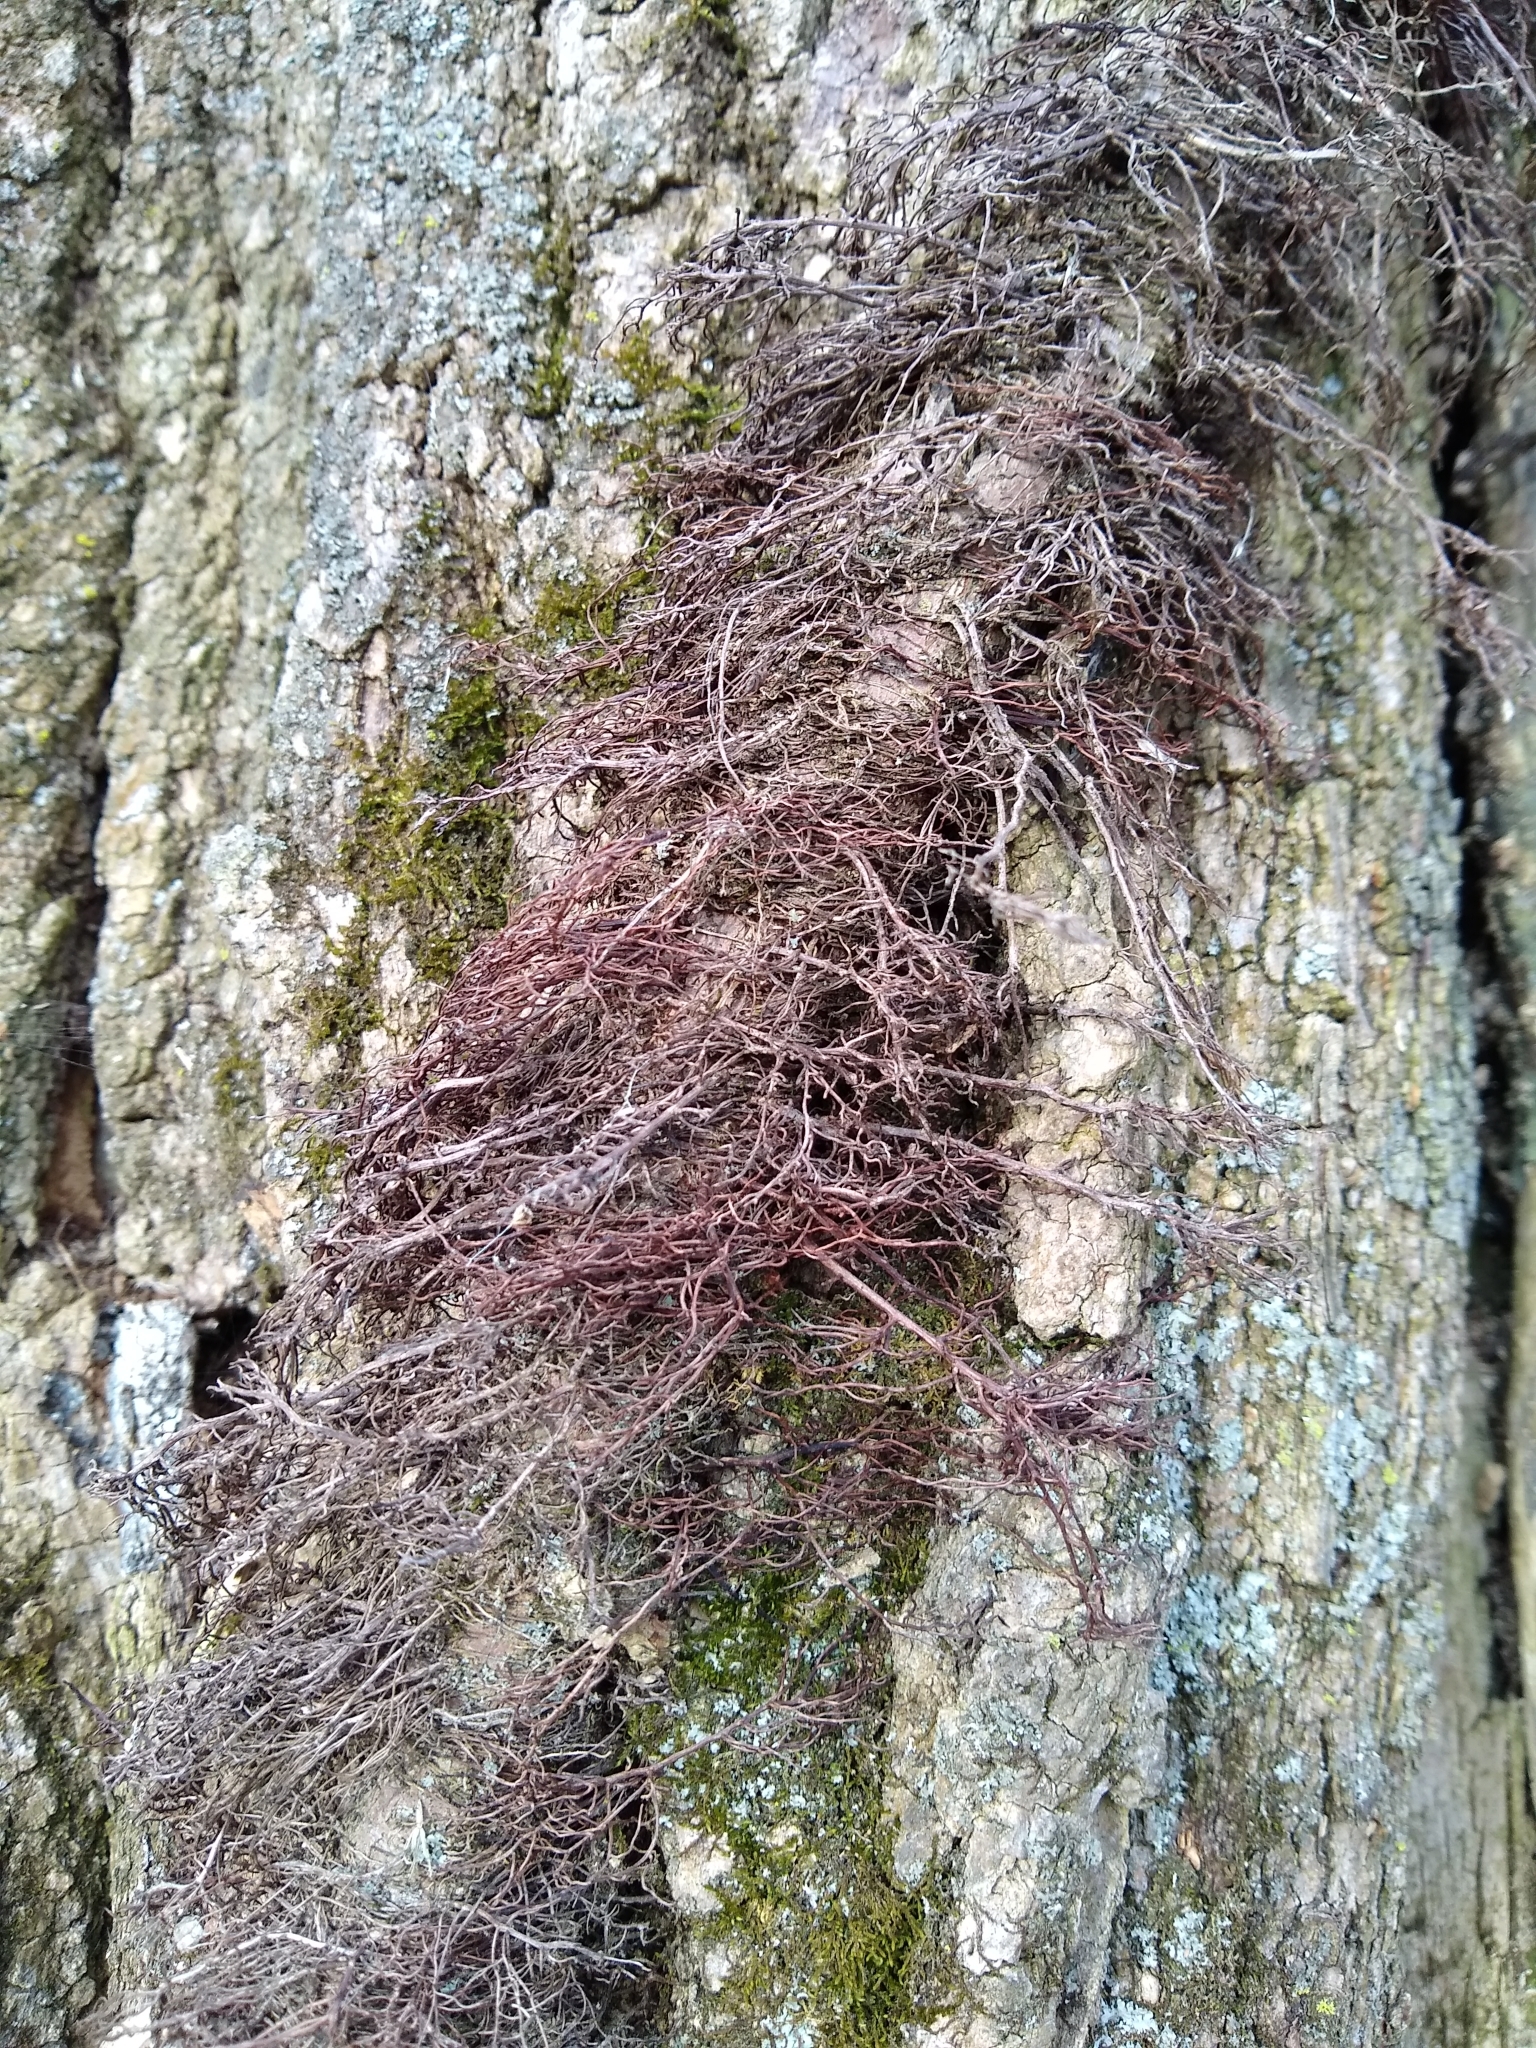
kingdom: Plantae
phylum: Tracheophyta
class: Magnoliopsida
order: Sapindales
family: Anacardiaceae
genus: Toxicodendron
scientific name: Toxicodendron radicans
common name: Poison ivy
